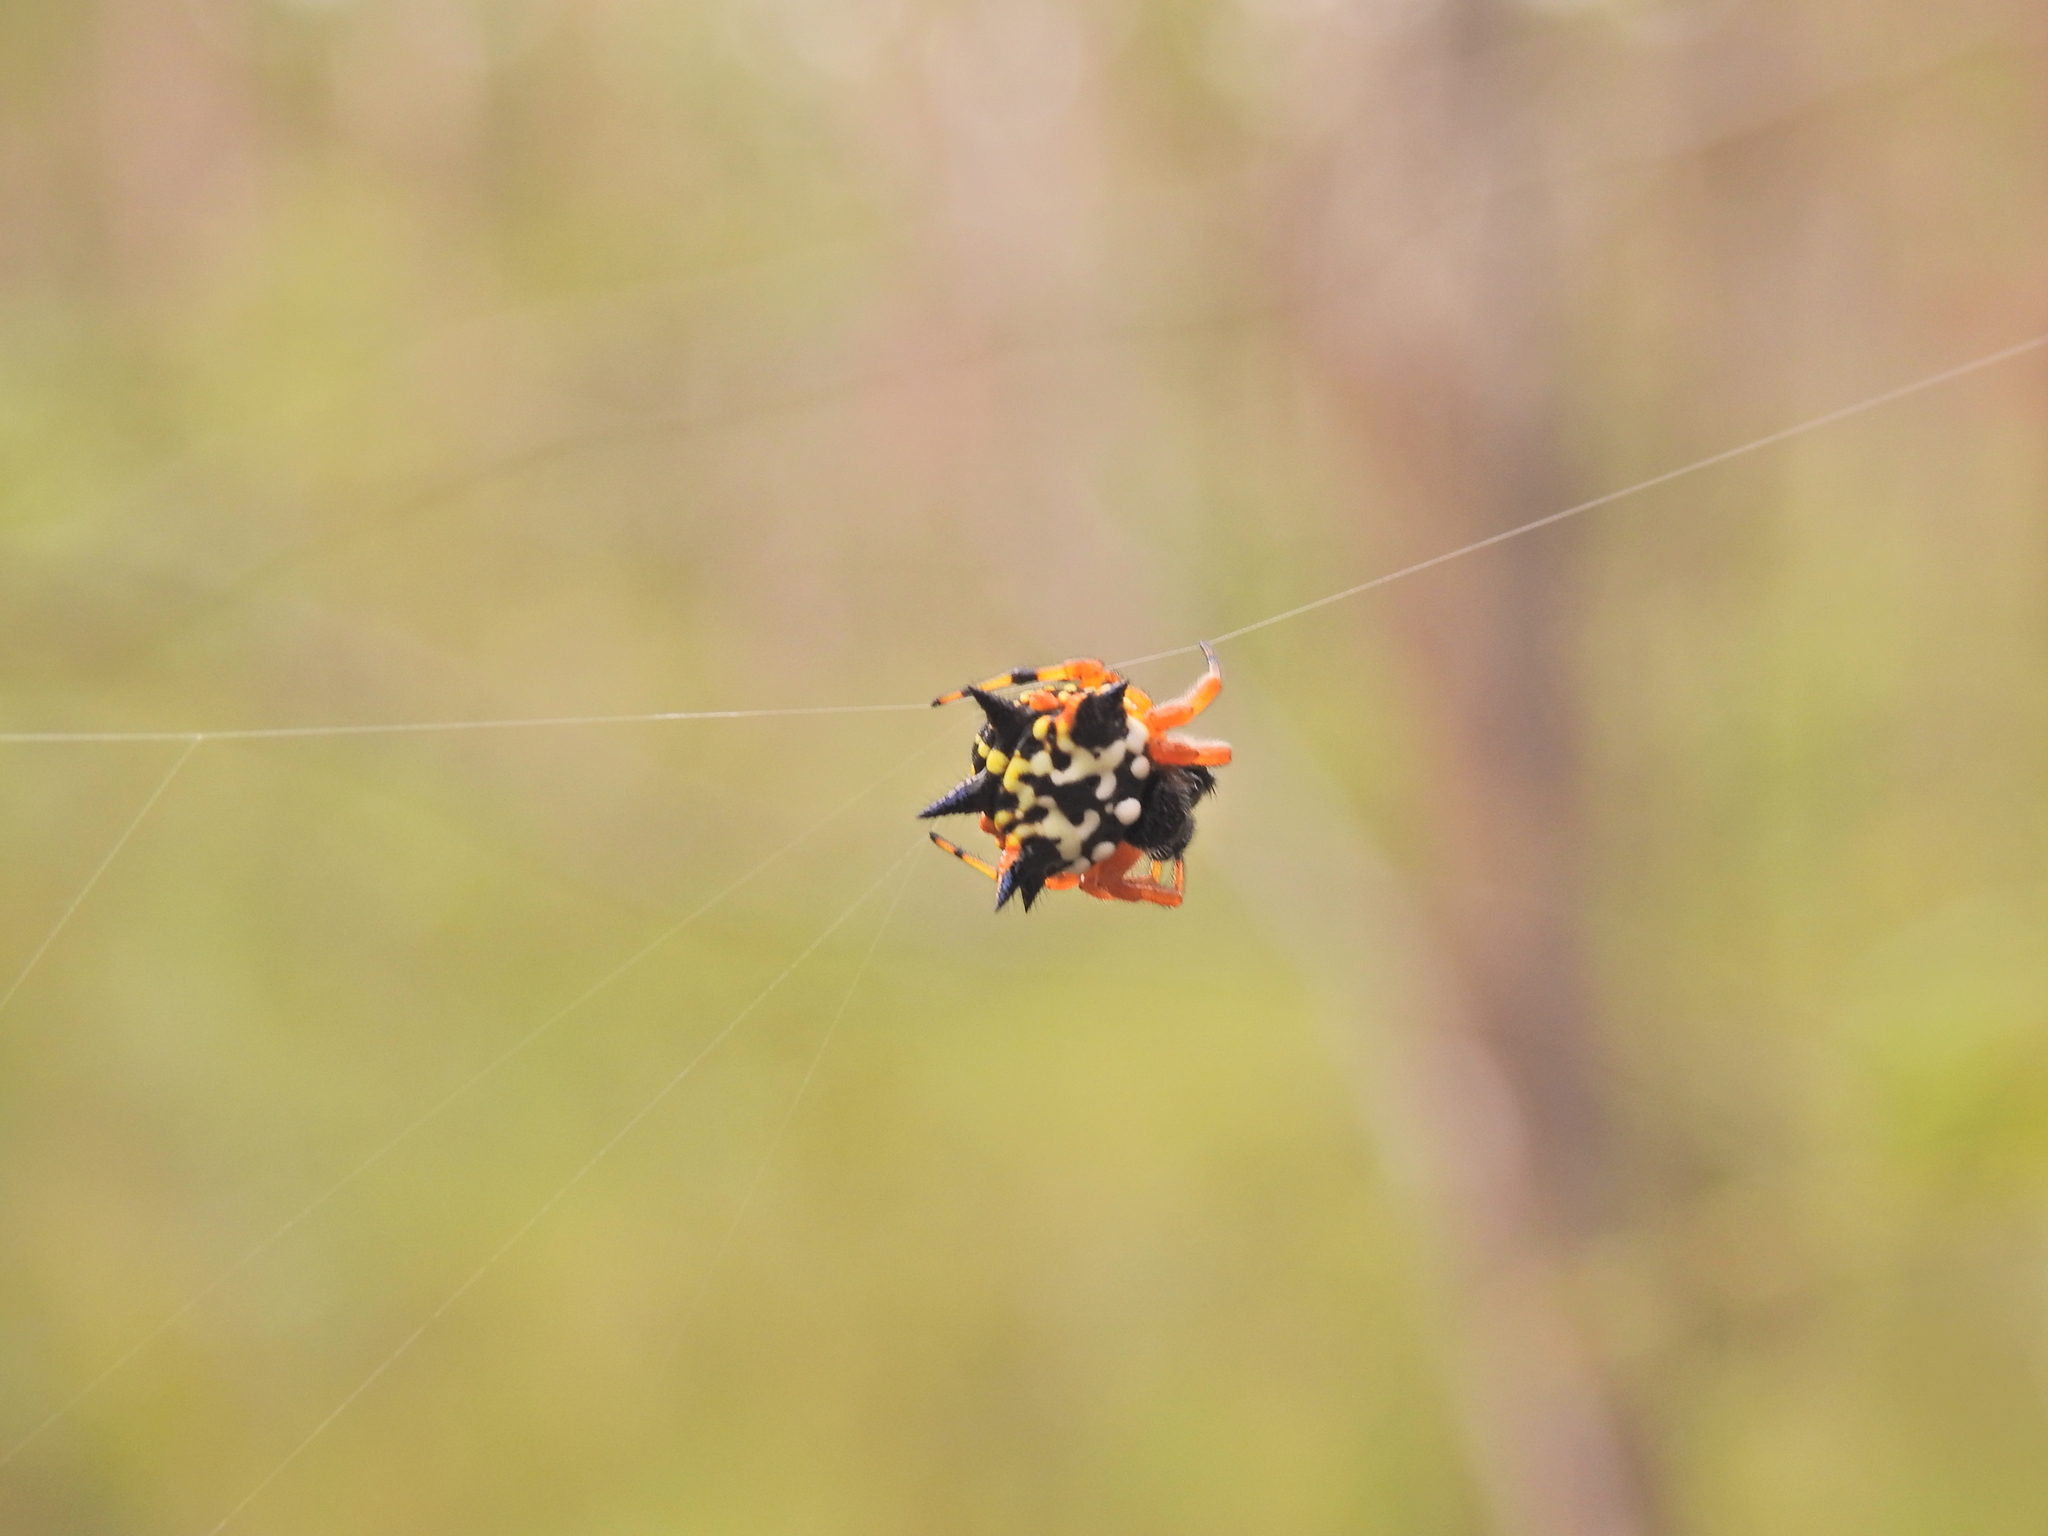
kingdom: Animalia
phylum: Arthropoda
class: Arachnida
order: Araneae
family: Araneidae
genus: Austracantha
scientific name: Austracantha minax
